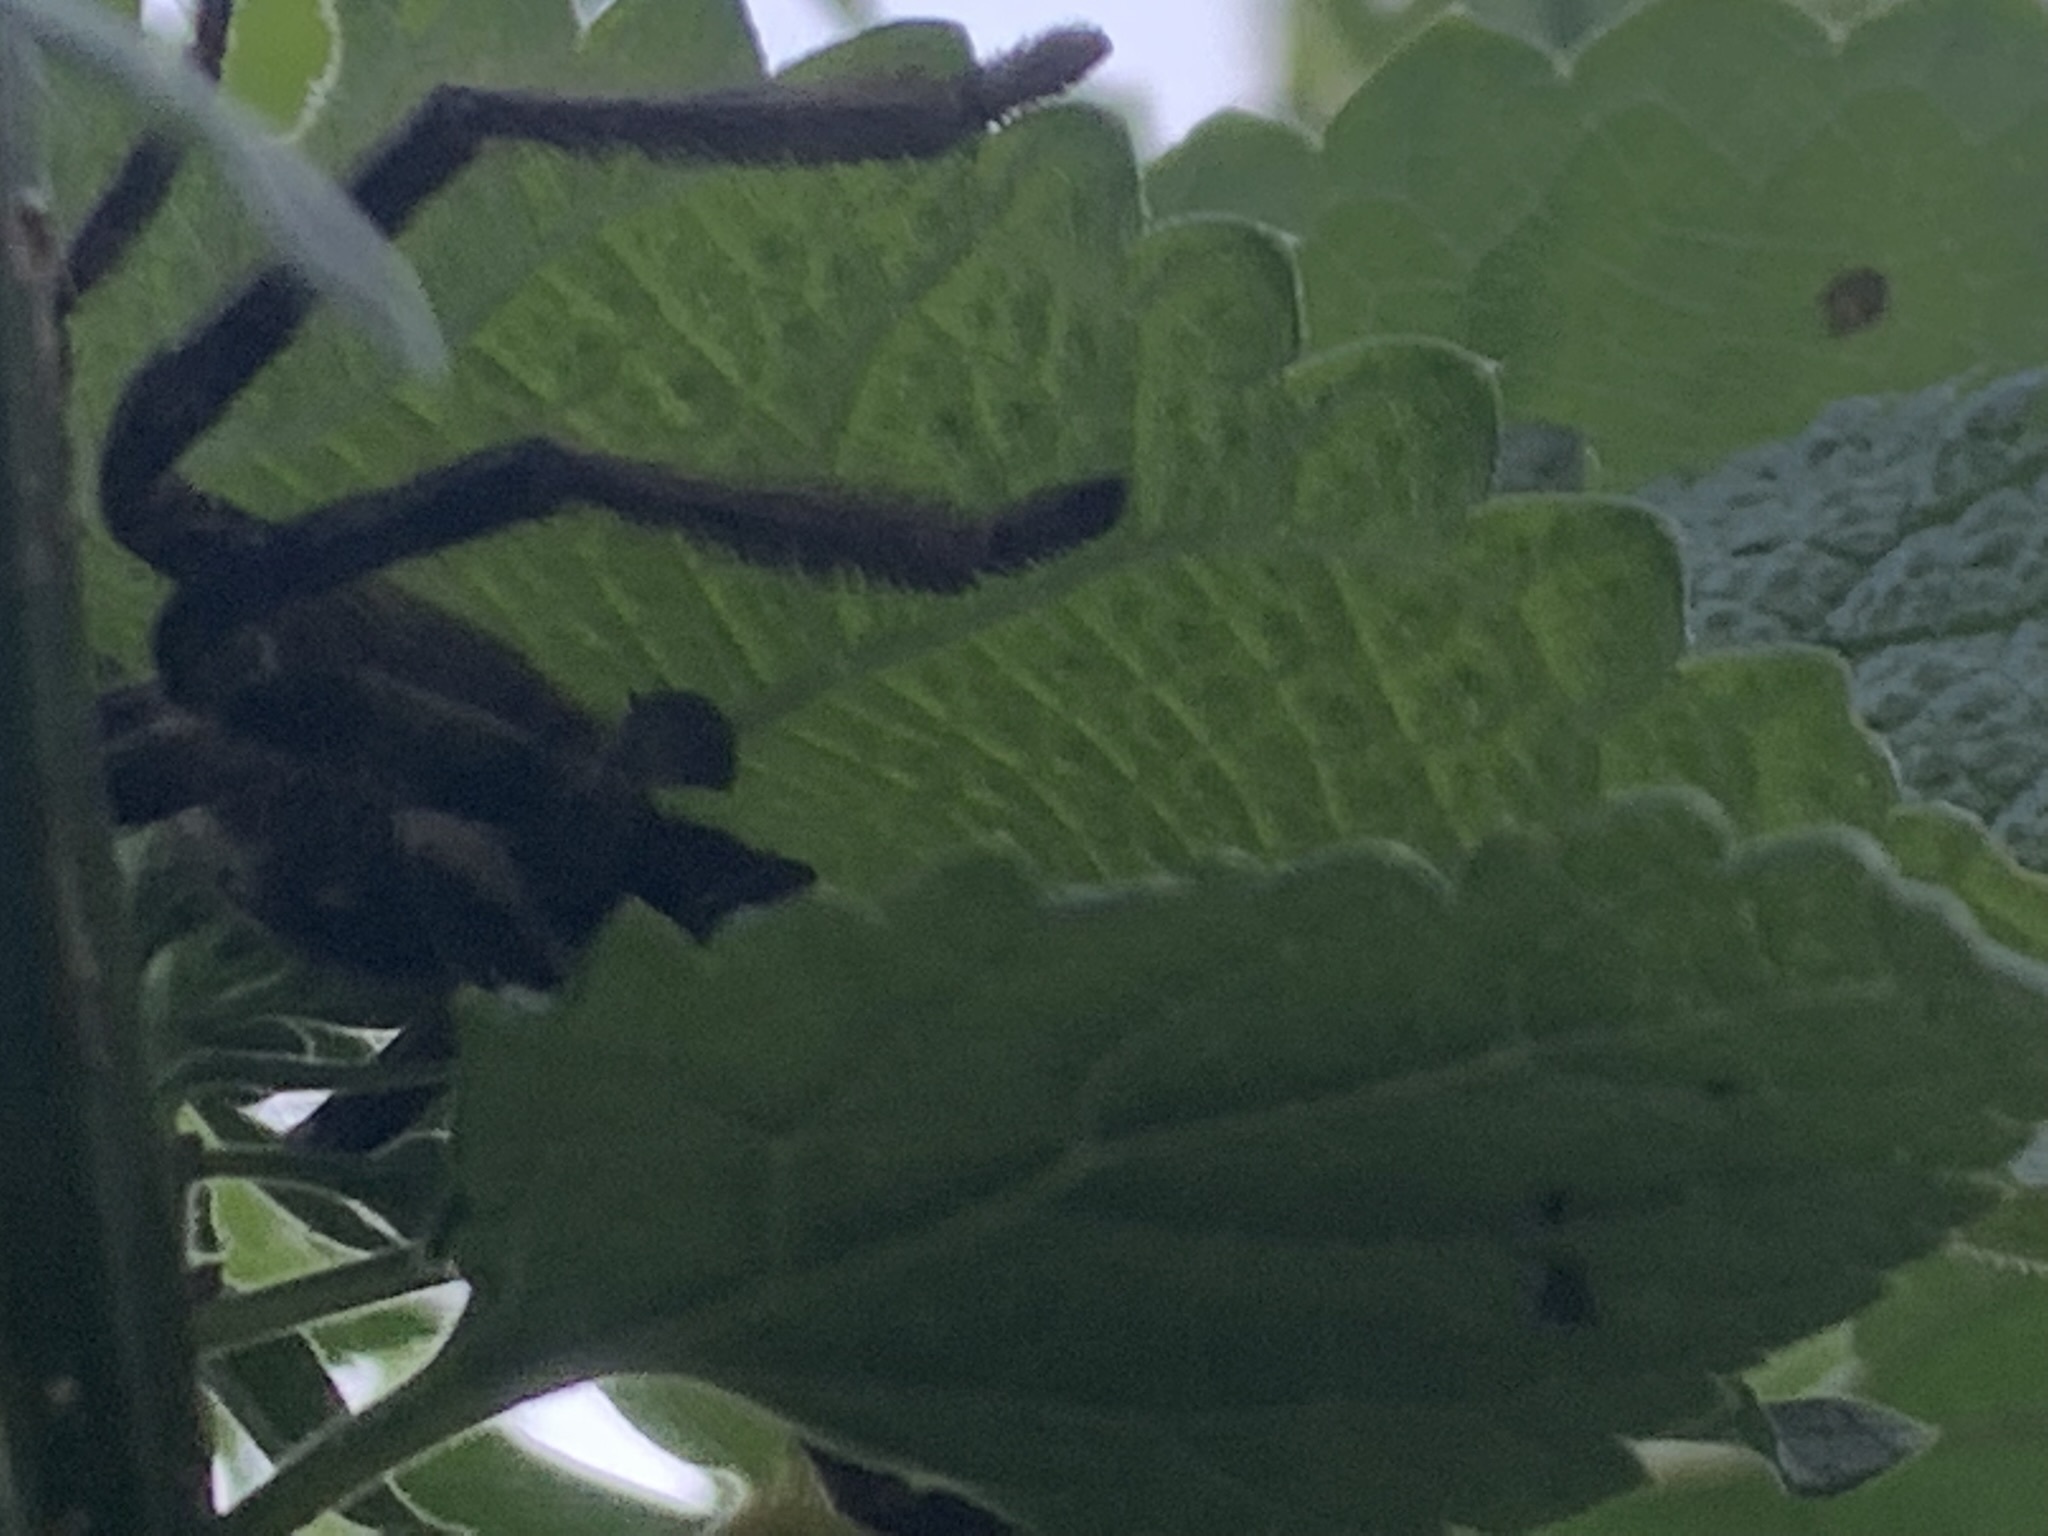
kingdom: Animalia
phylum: Arthropoda
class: Arachnida
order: Araneae
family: Sparassidae
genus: Polybetes
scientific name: Polybetes pythagoricus
